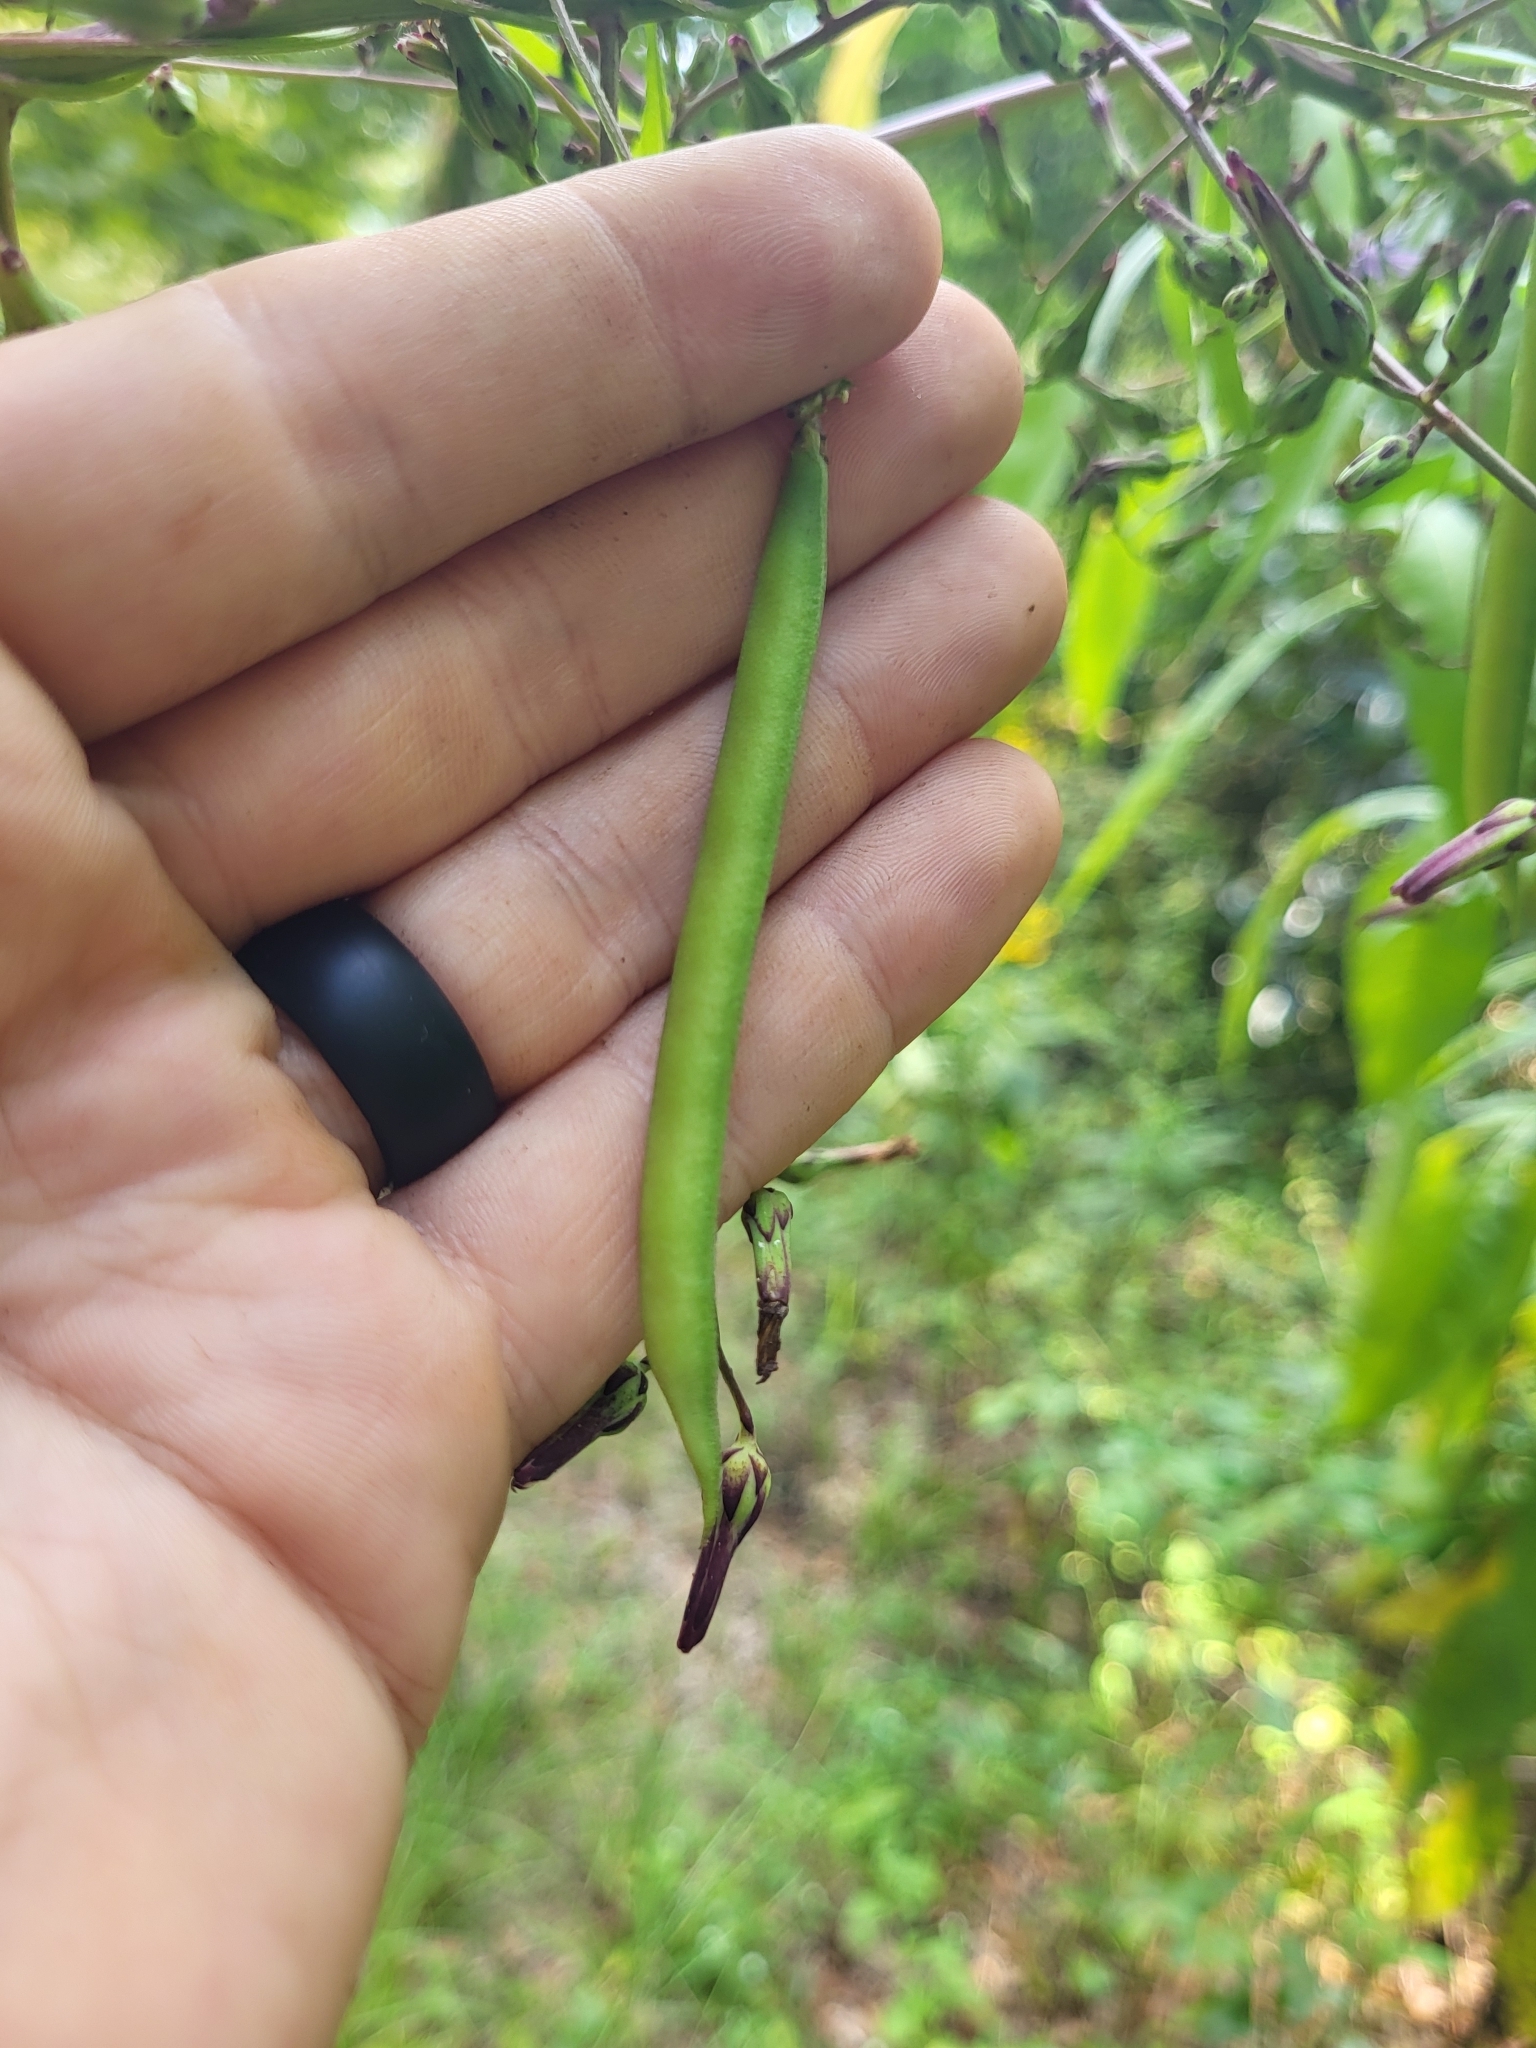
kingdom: Plantae
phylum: Tracheophyta
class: Magnoliopsida
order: Fabales
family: Fabaceae
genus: Strophostyles
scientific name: Strophostyles helvola
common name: Trailing wild bean
